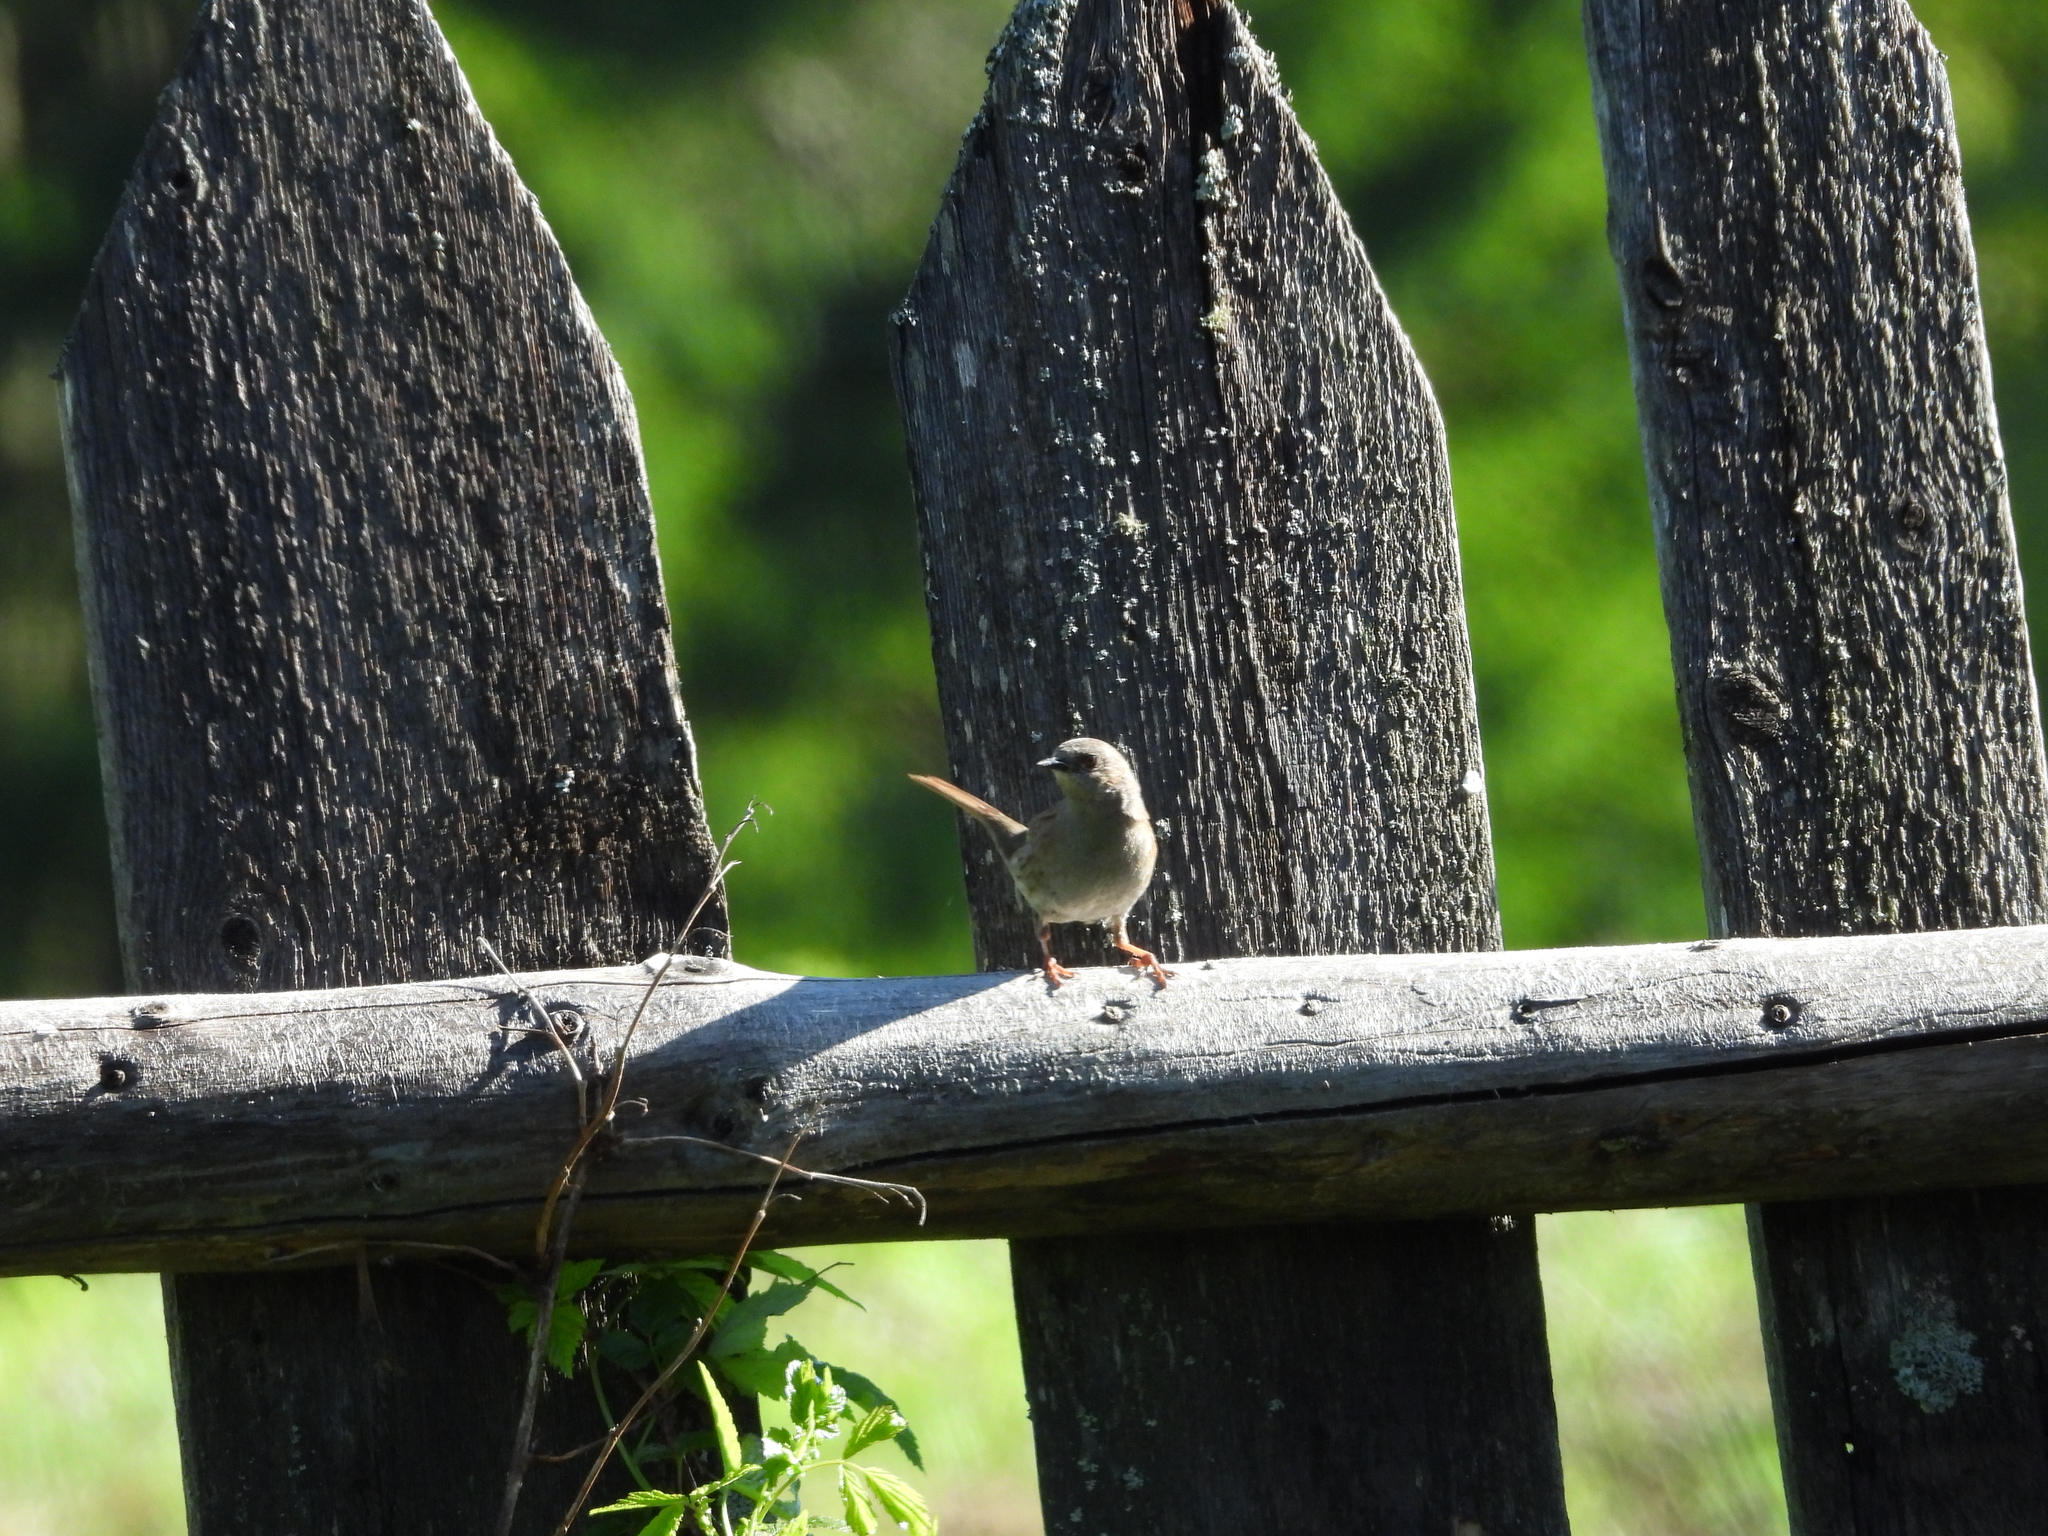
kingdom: Animalia
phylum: Chordata
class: Aves
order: Passeriformes
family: Prunellidae
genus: Prunella
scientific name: Prunella modularis
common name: Dunnock
